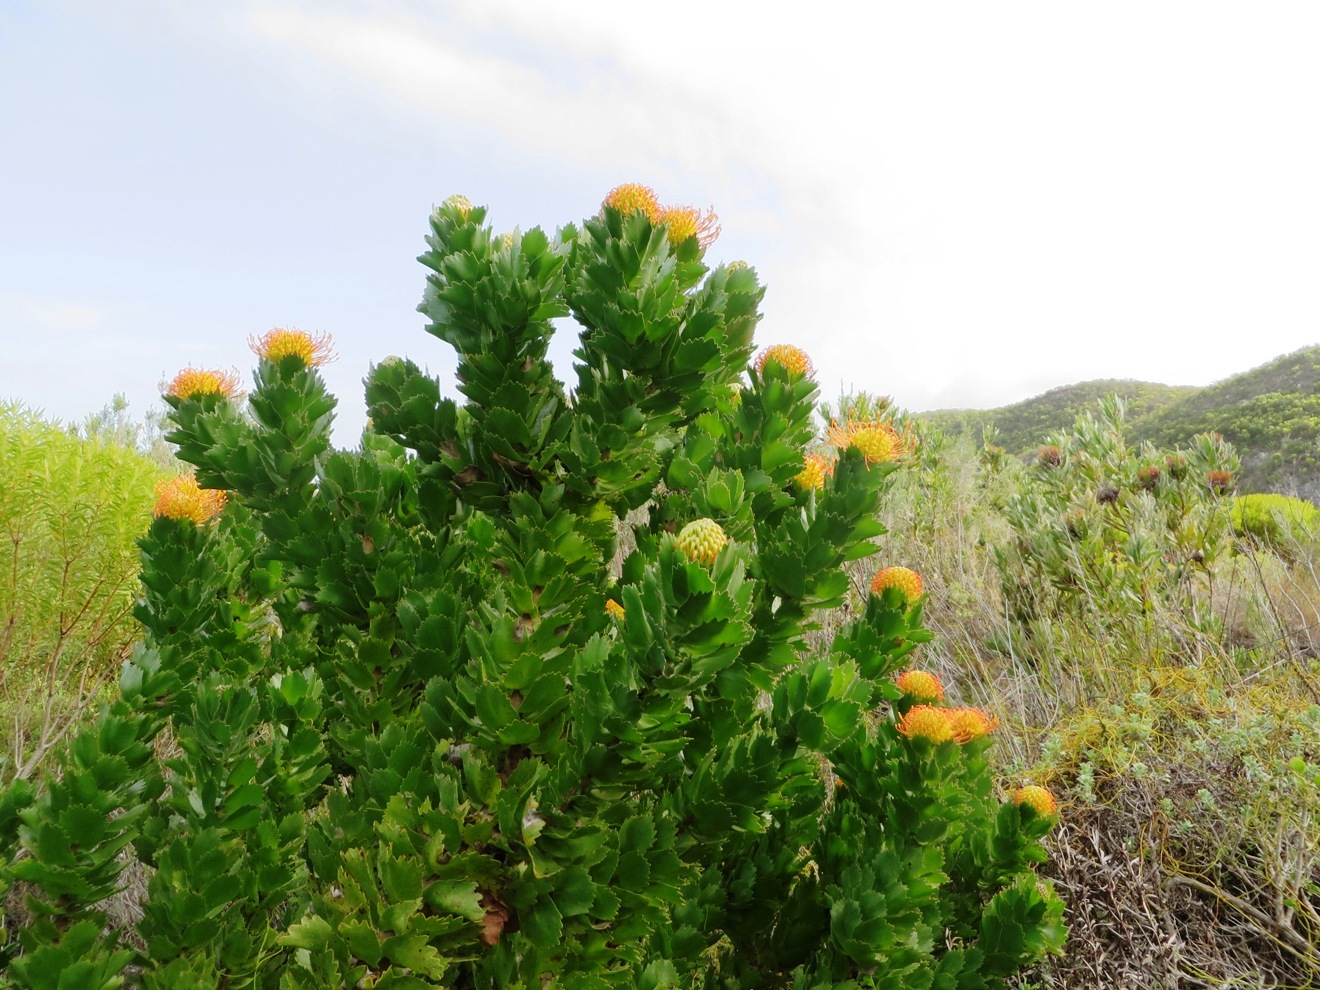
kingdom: Plantae
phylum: Tracheophyta
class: Magnoliopsida
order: Proteales
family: Proteaceae
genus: Leucospermum
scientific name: Leucospermum patersonii
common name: False tree pincushion
